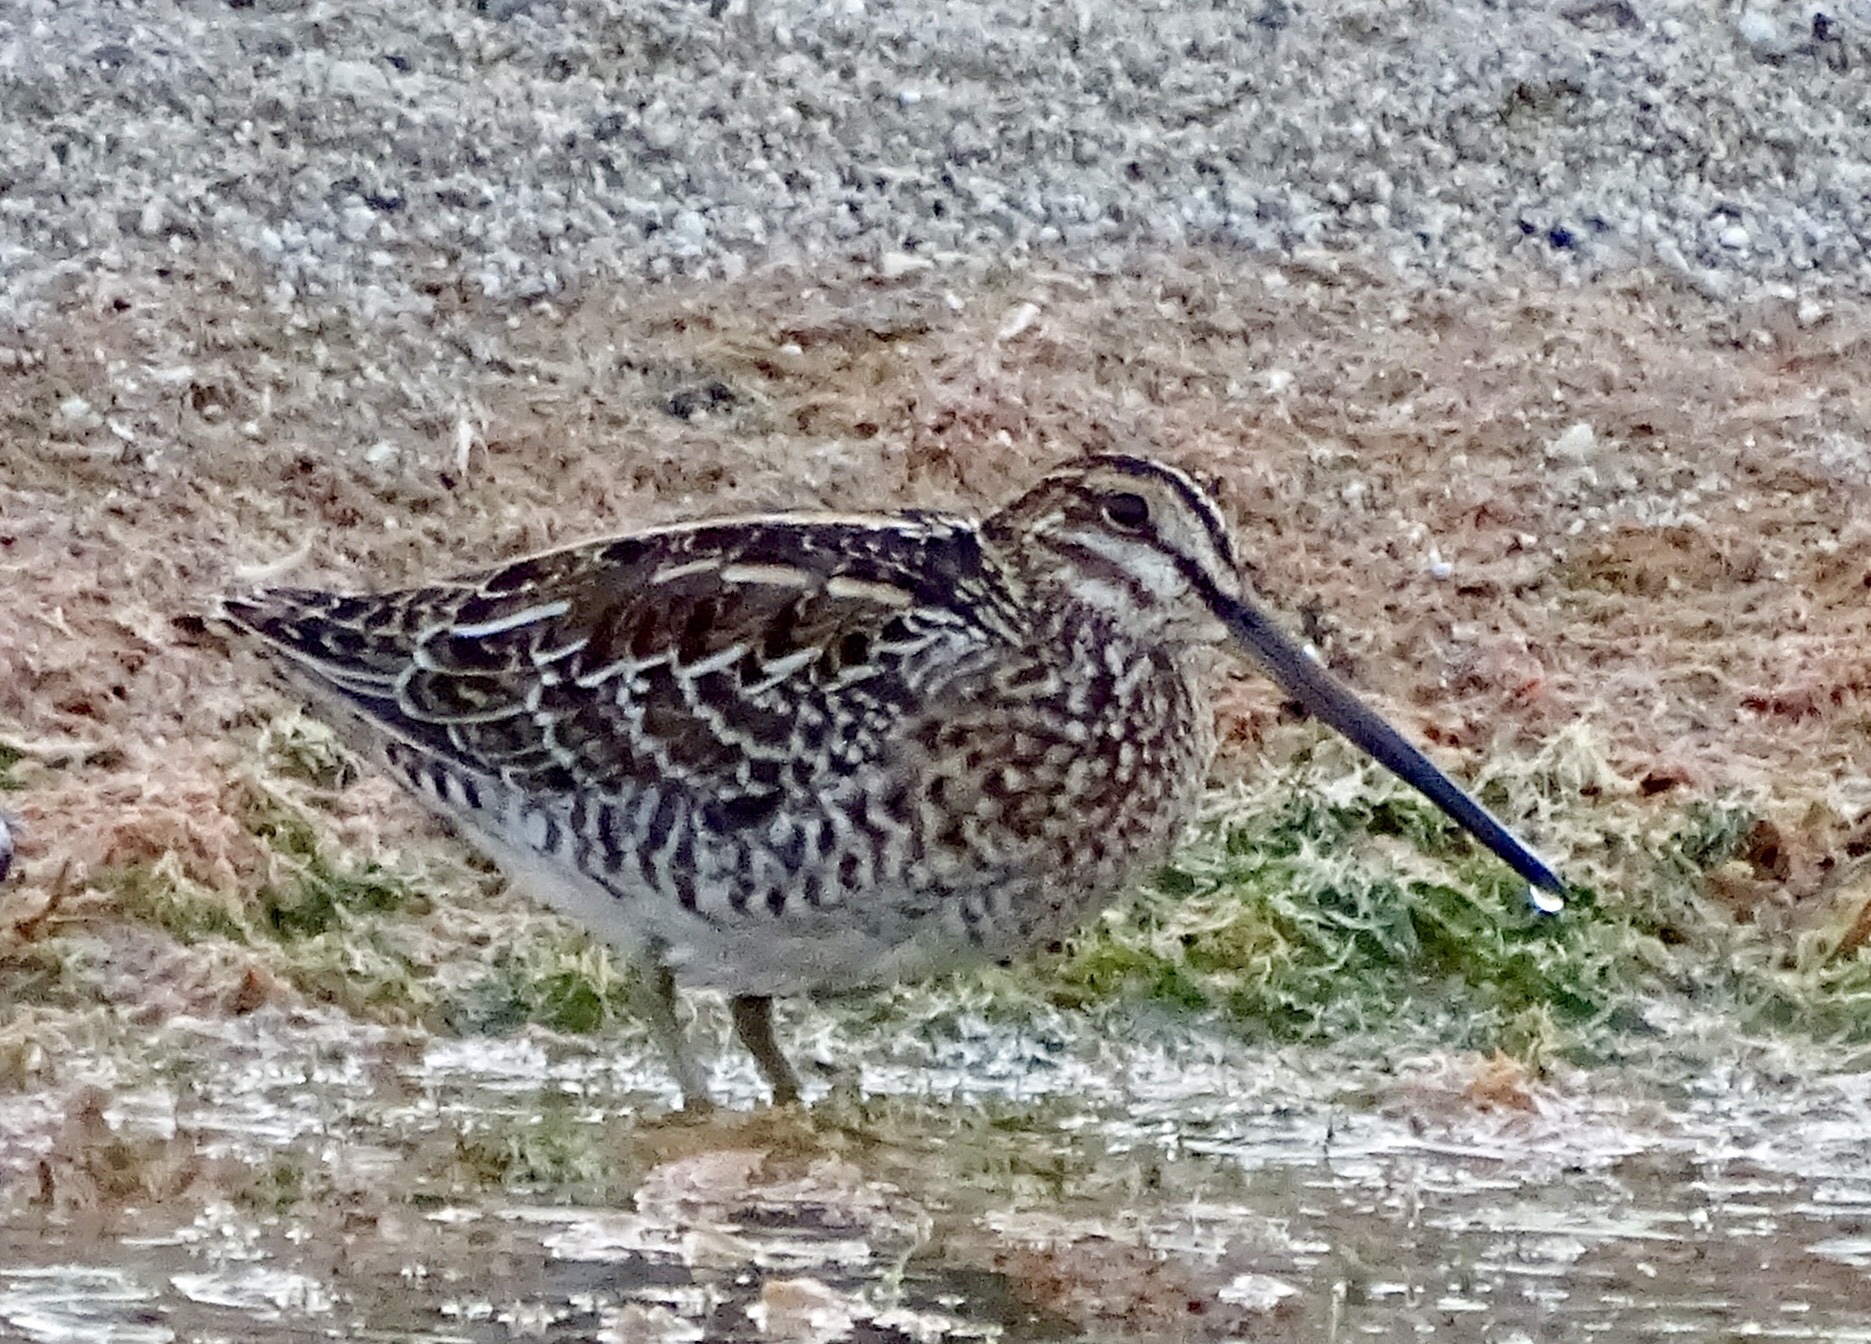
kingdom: Animalia
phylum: Chordata
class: Aves
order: Charadriiformes
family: Scolopacidae
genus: Gallinago
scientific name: Gallinago delicata
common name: Wilson's snipe
